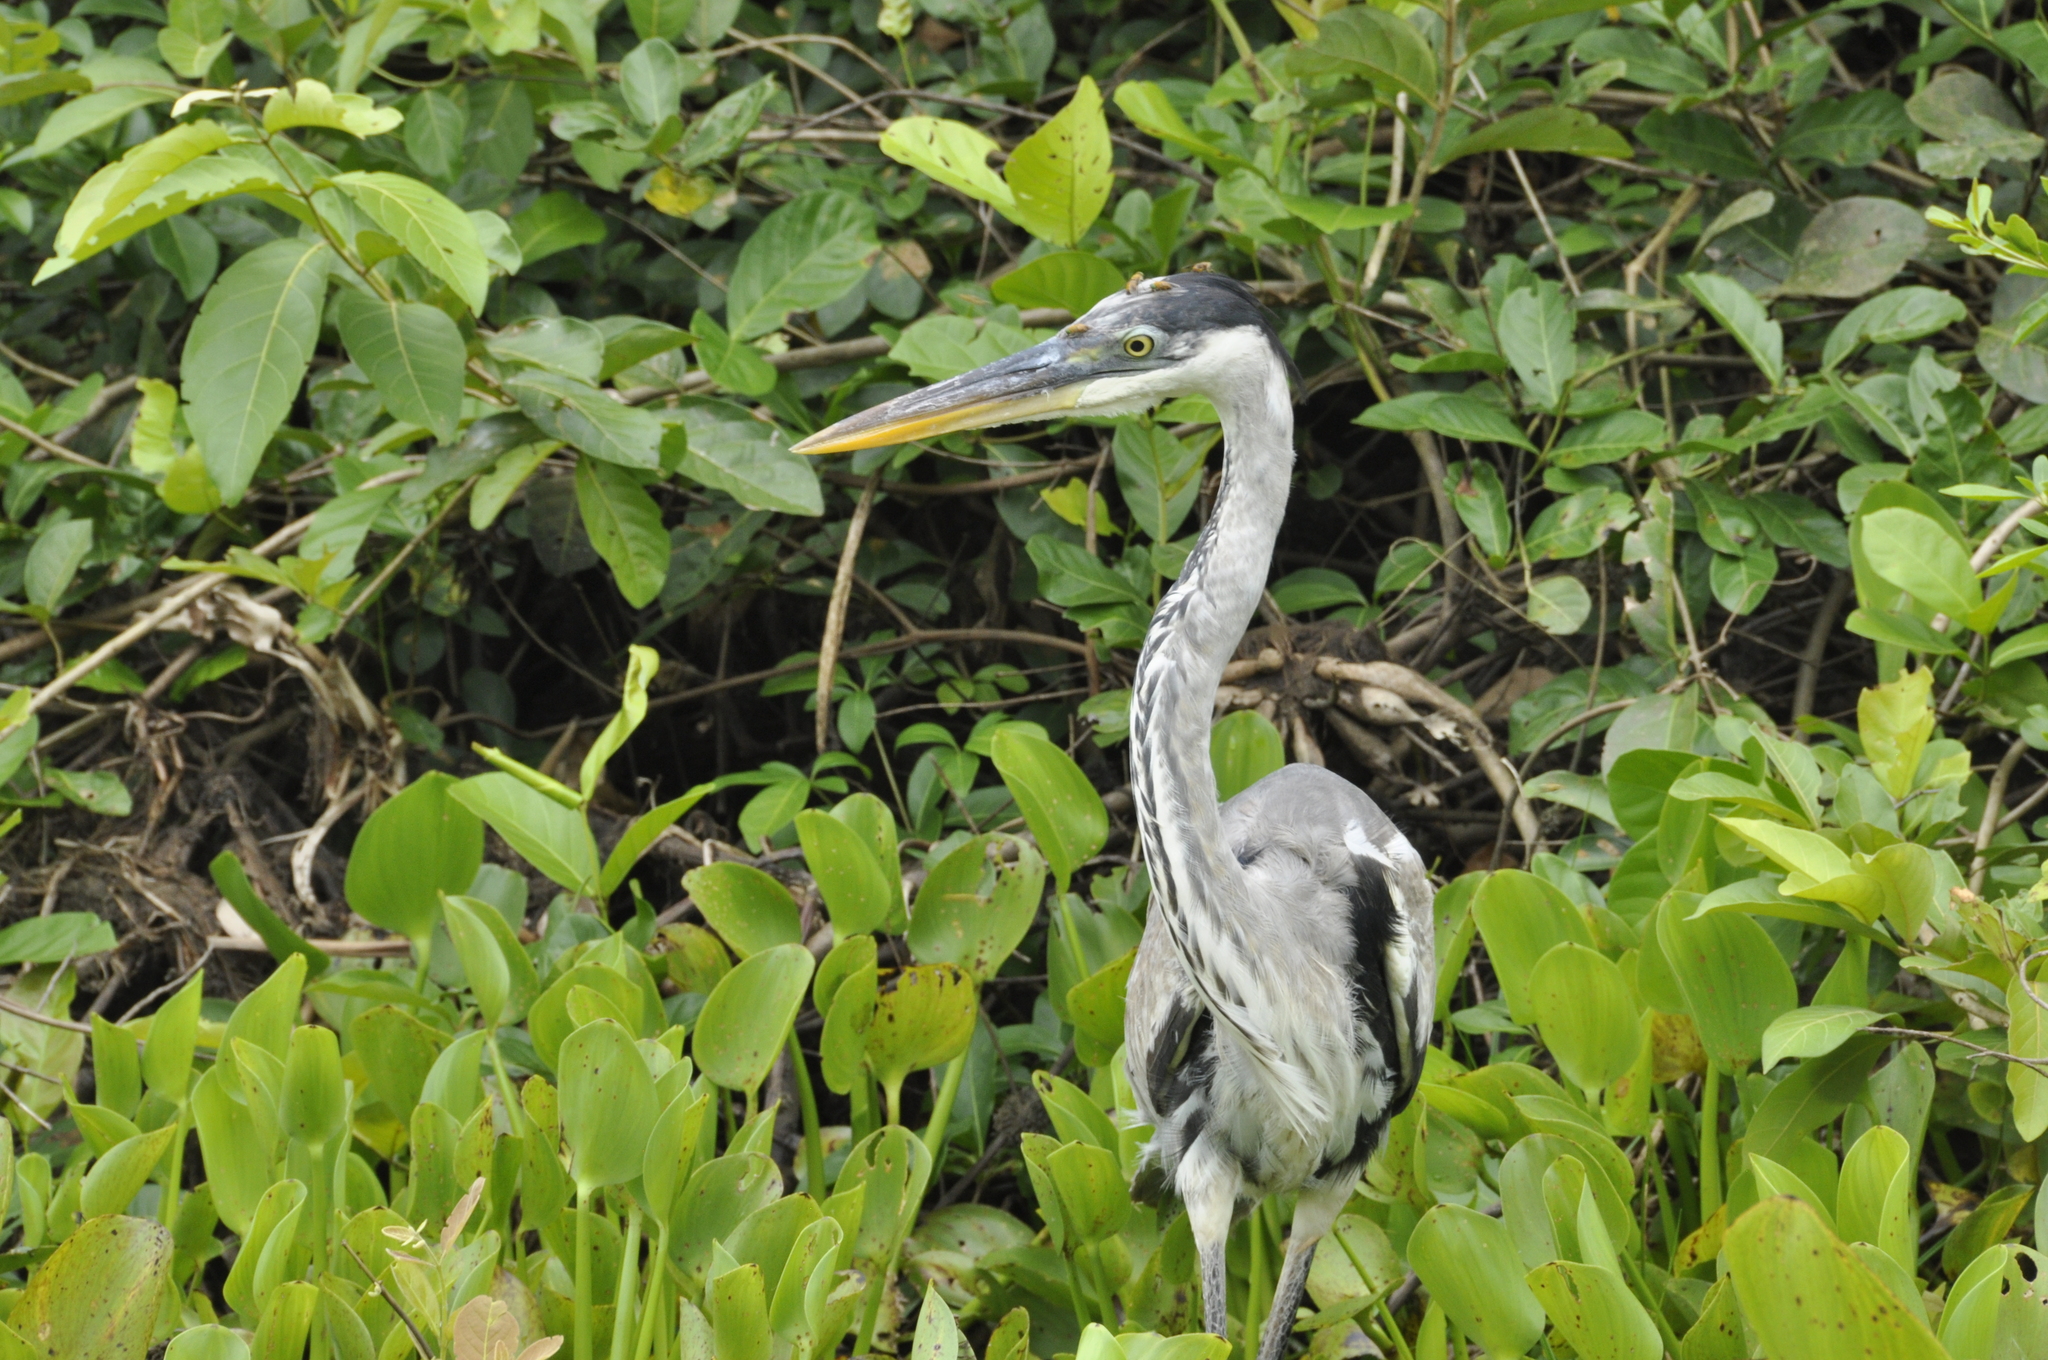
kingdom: Animalia
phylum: Chordata
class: Aves
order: Pelecaniformes
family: Ardeidae
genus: Ardea
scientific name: Ardea cocoi
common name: Cocoi heron
